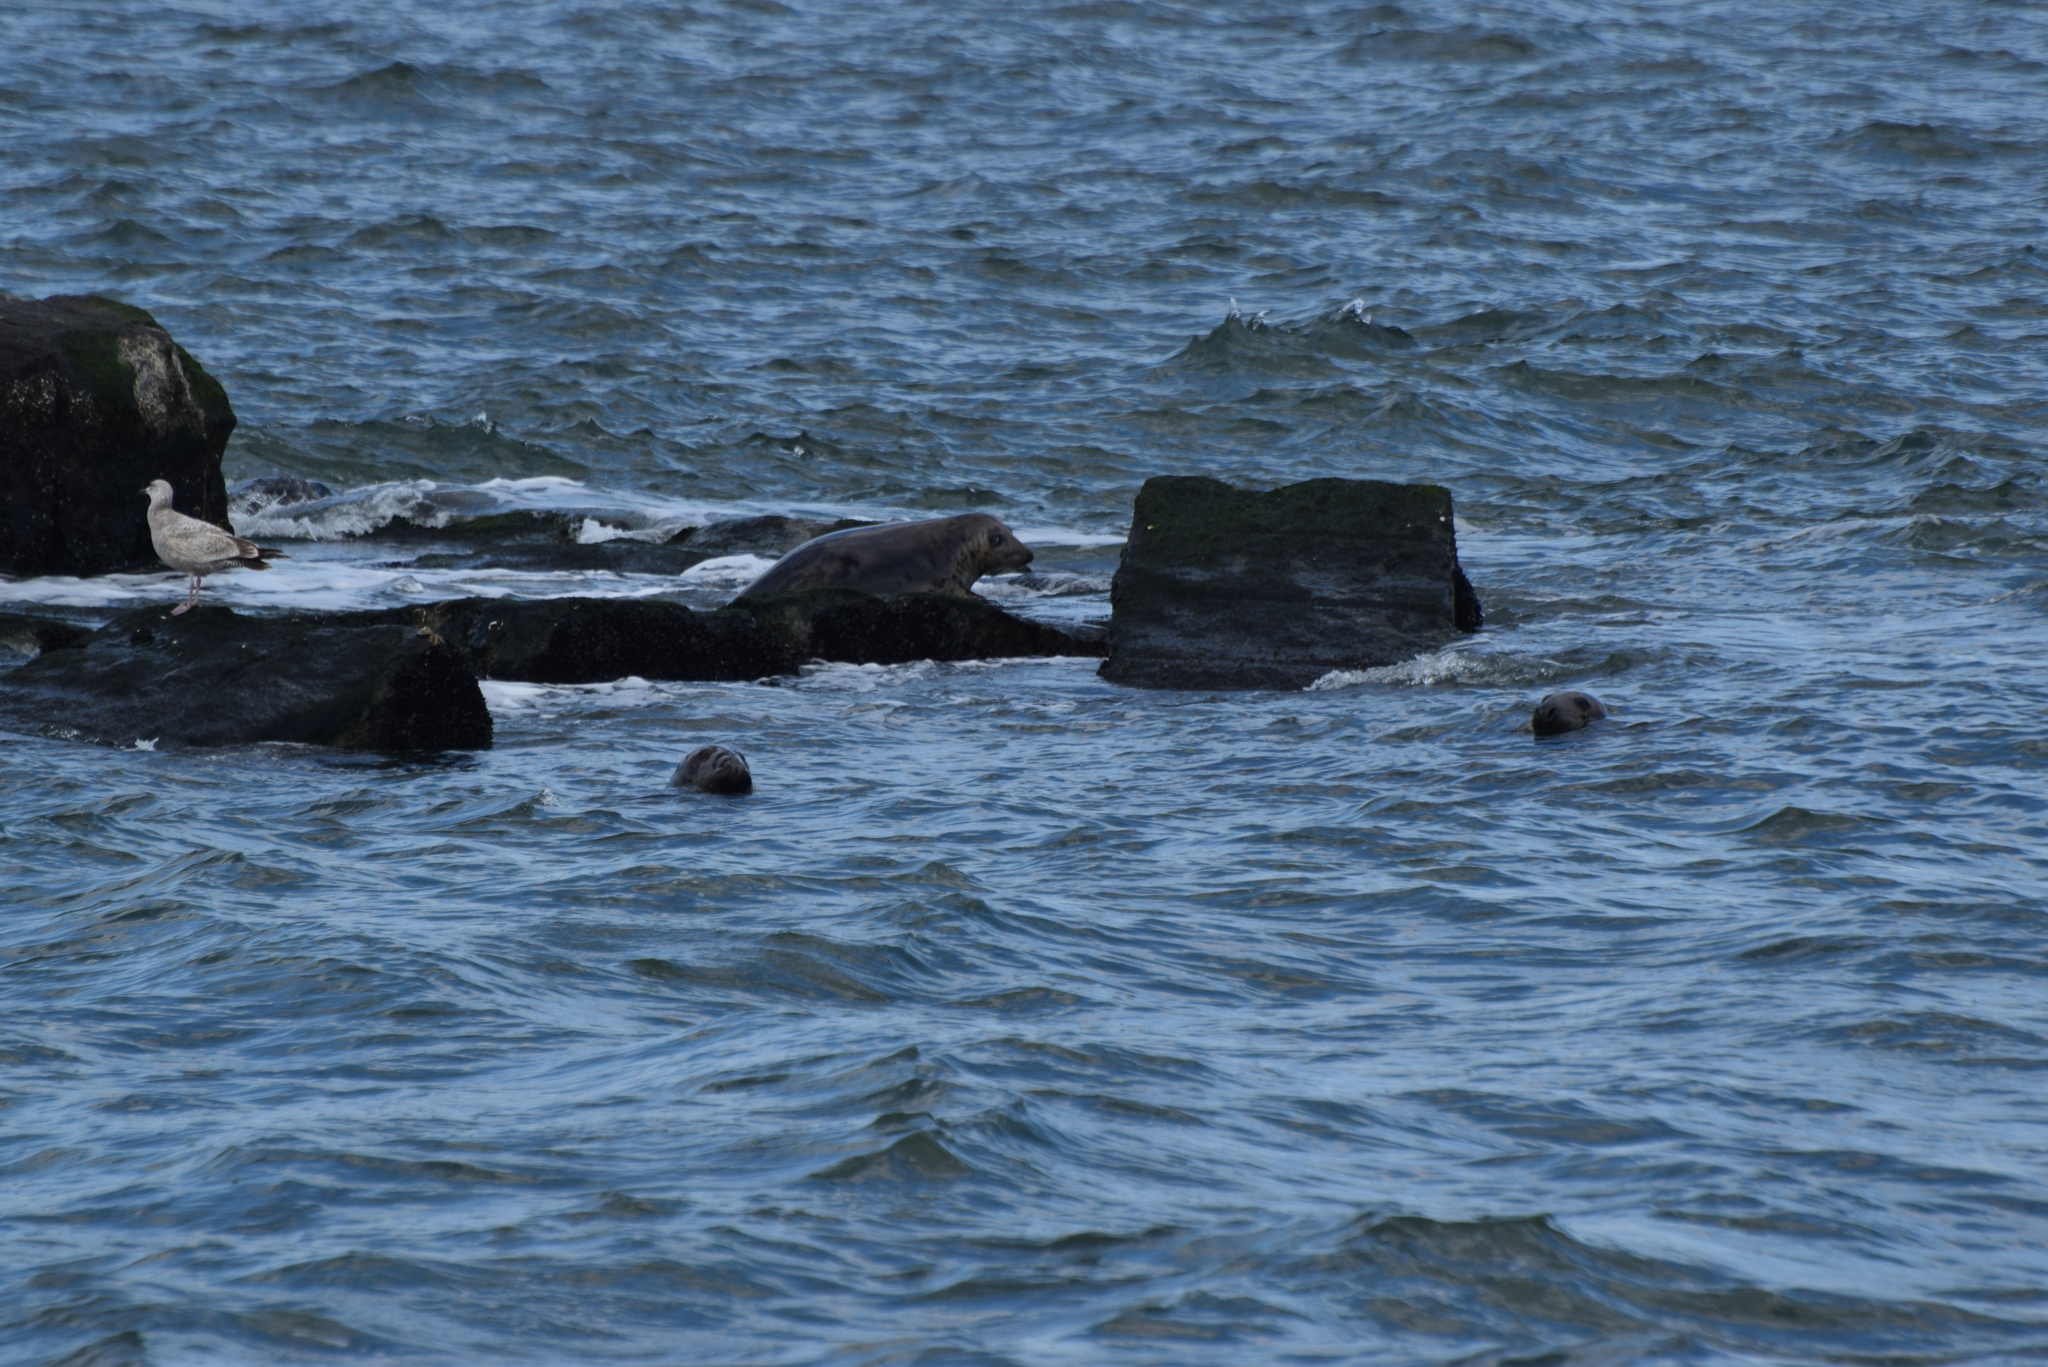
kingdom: Animalia
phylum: Chordata
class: Mammalia
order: Carnivora
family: Phocidae
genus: Halichoerus
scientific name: Halichoerus grypus
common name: Grey seal
